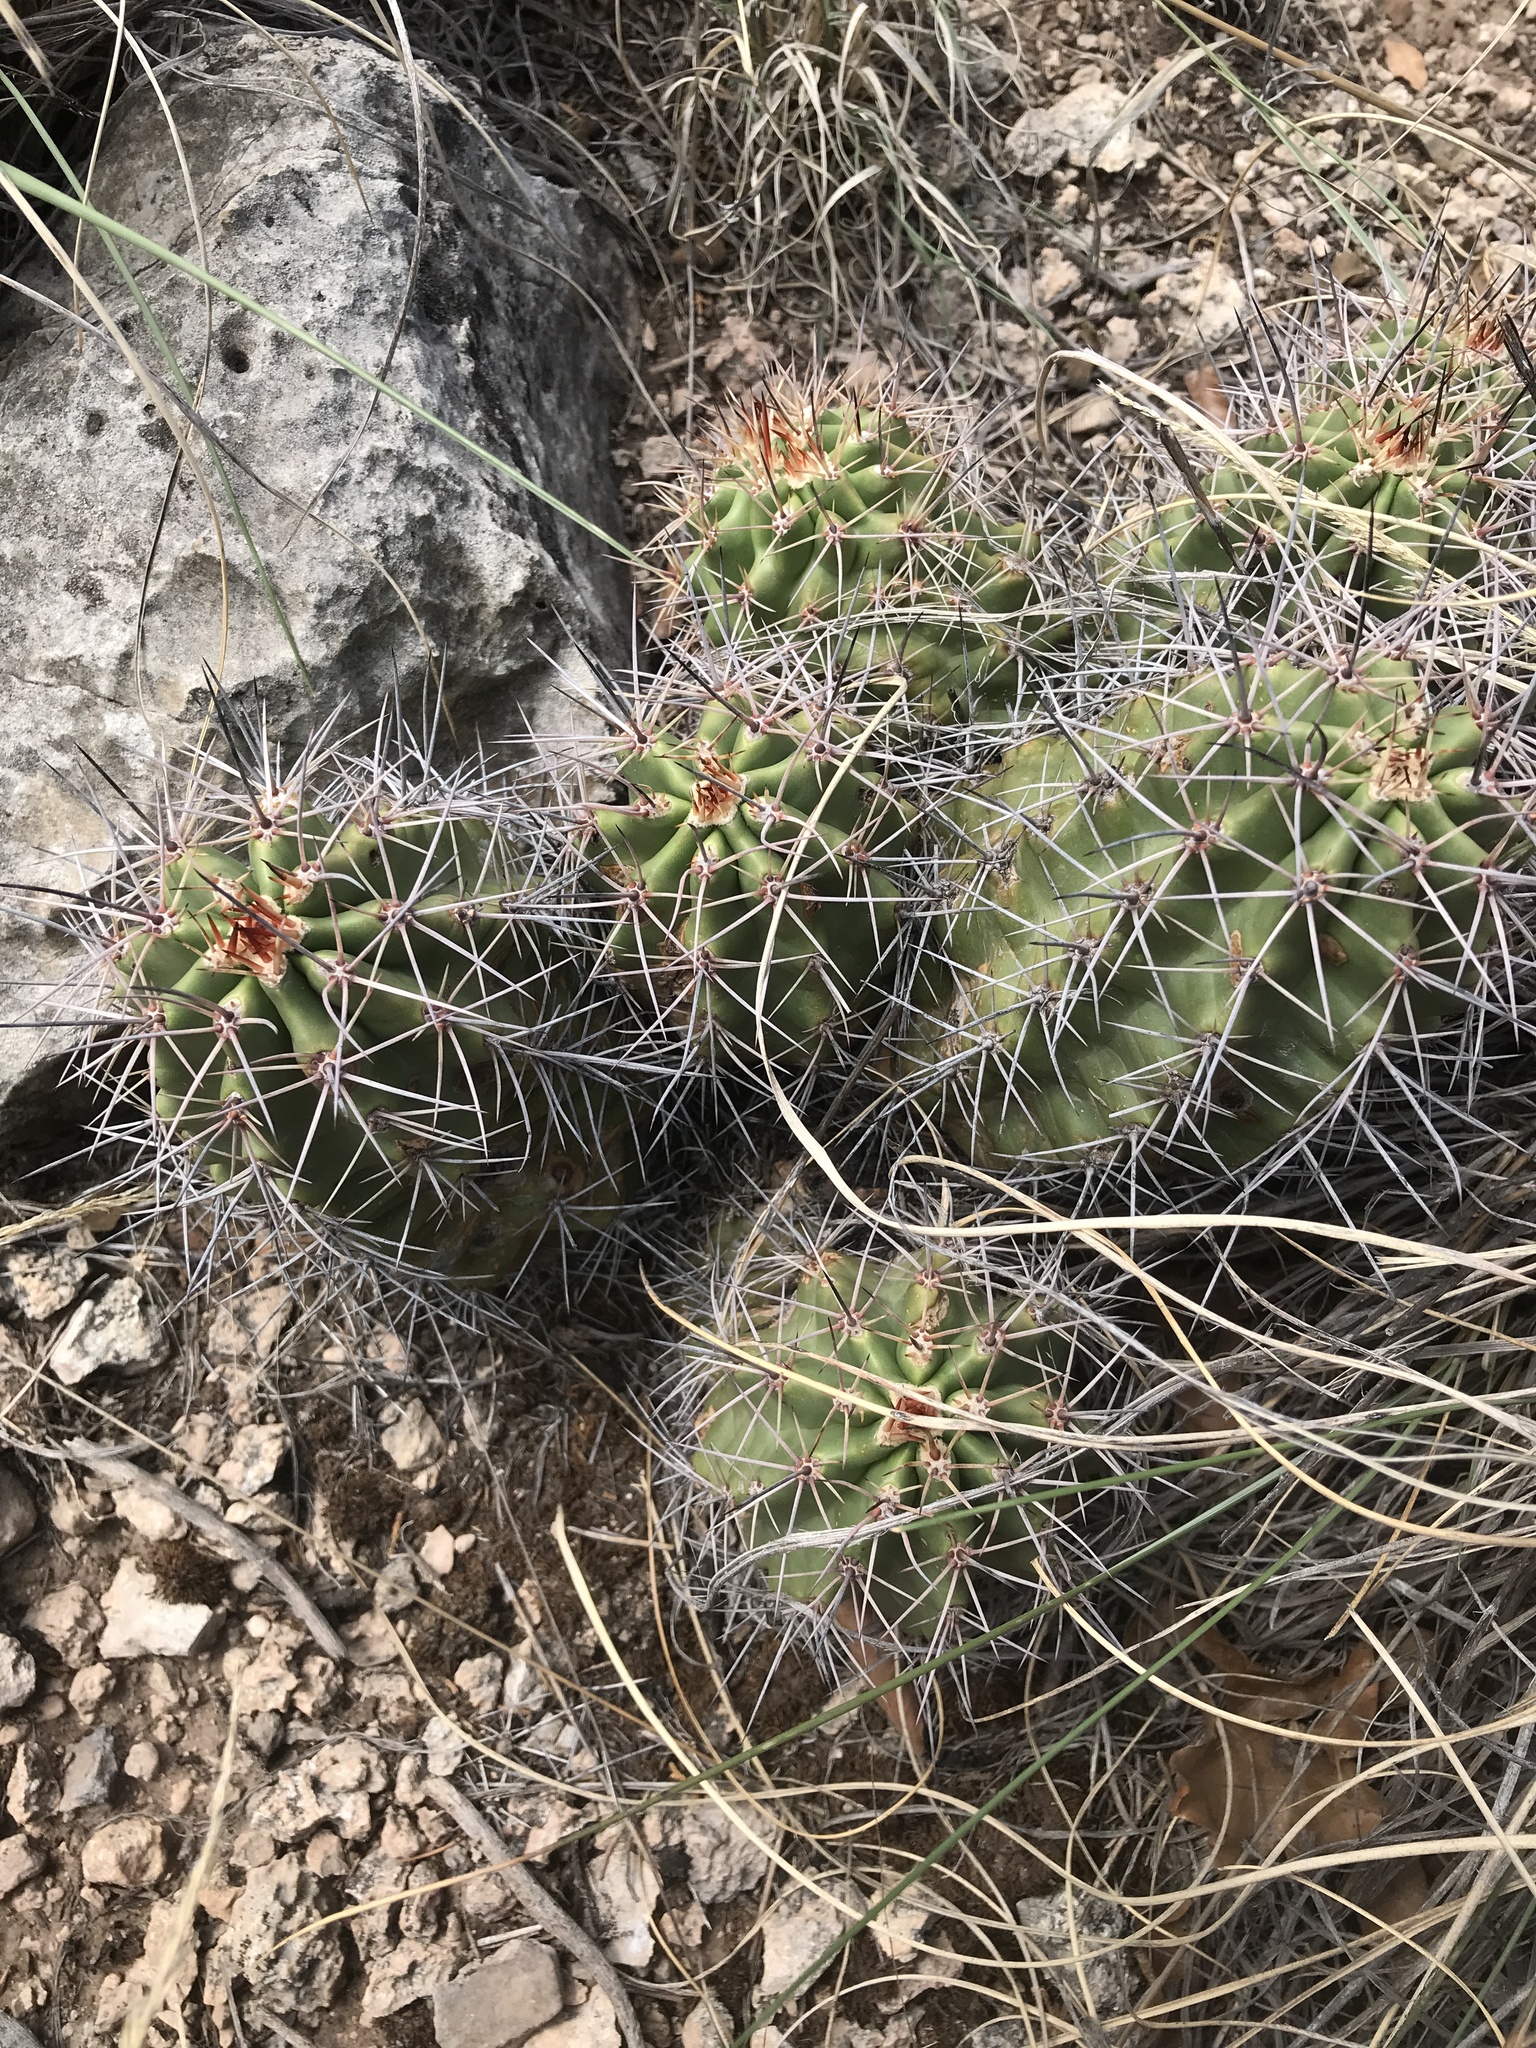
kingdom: Plantae
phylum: Tracheophyta
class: Magnoliopsida
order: Caryophyllales
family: Cactaceae
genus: Echinocereus
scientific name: Echinocereus coccineus
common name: Scarlet hedgehog cactus
